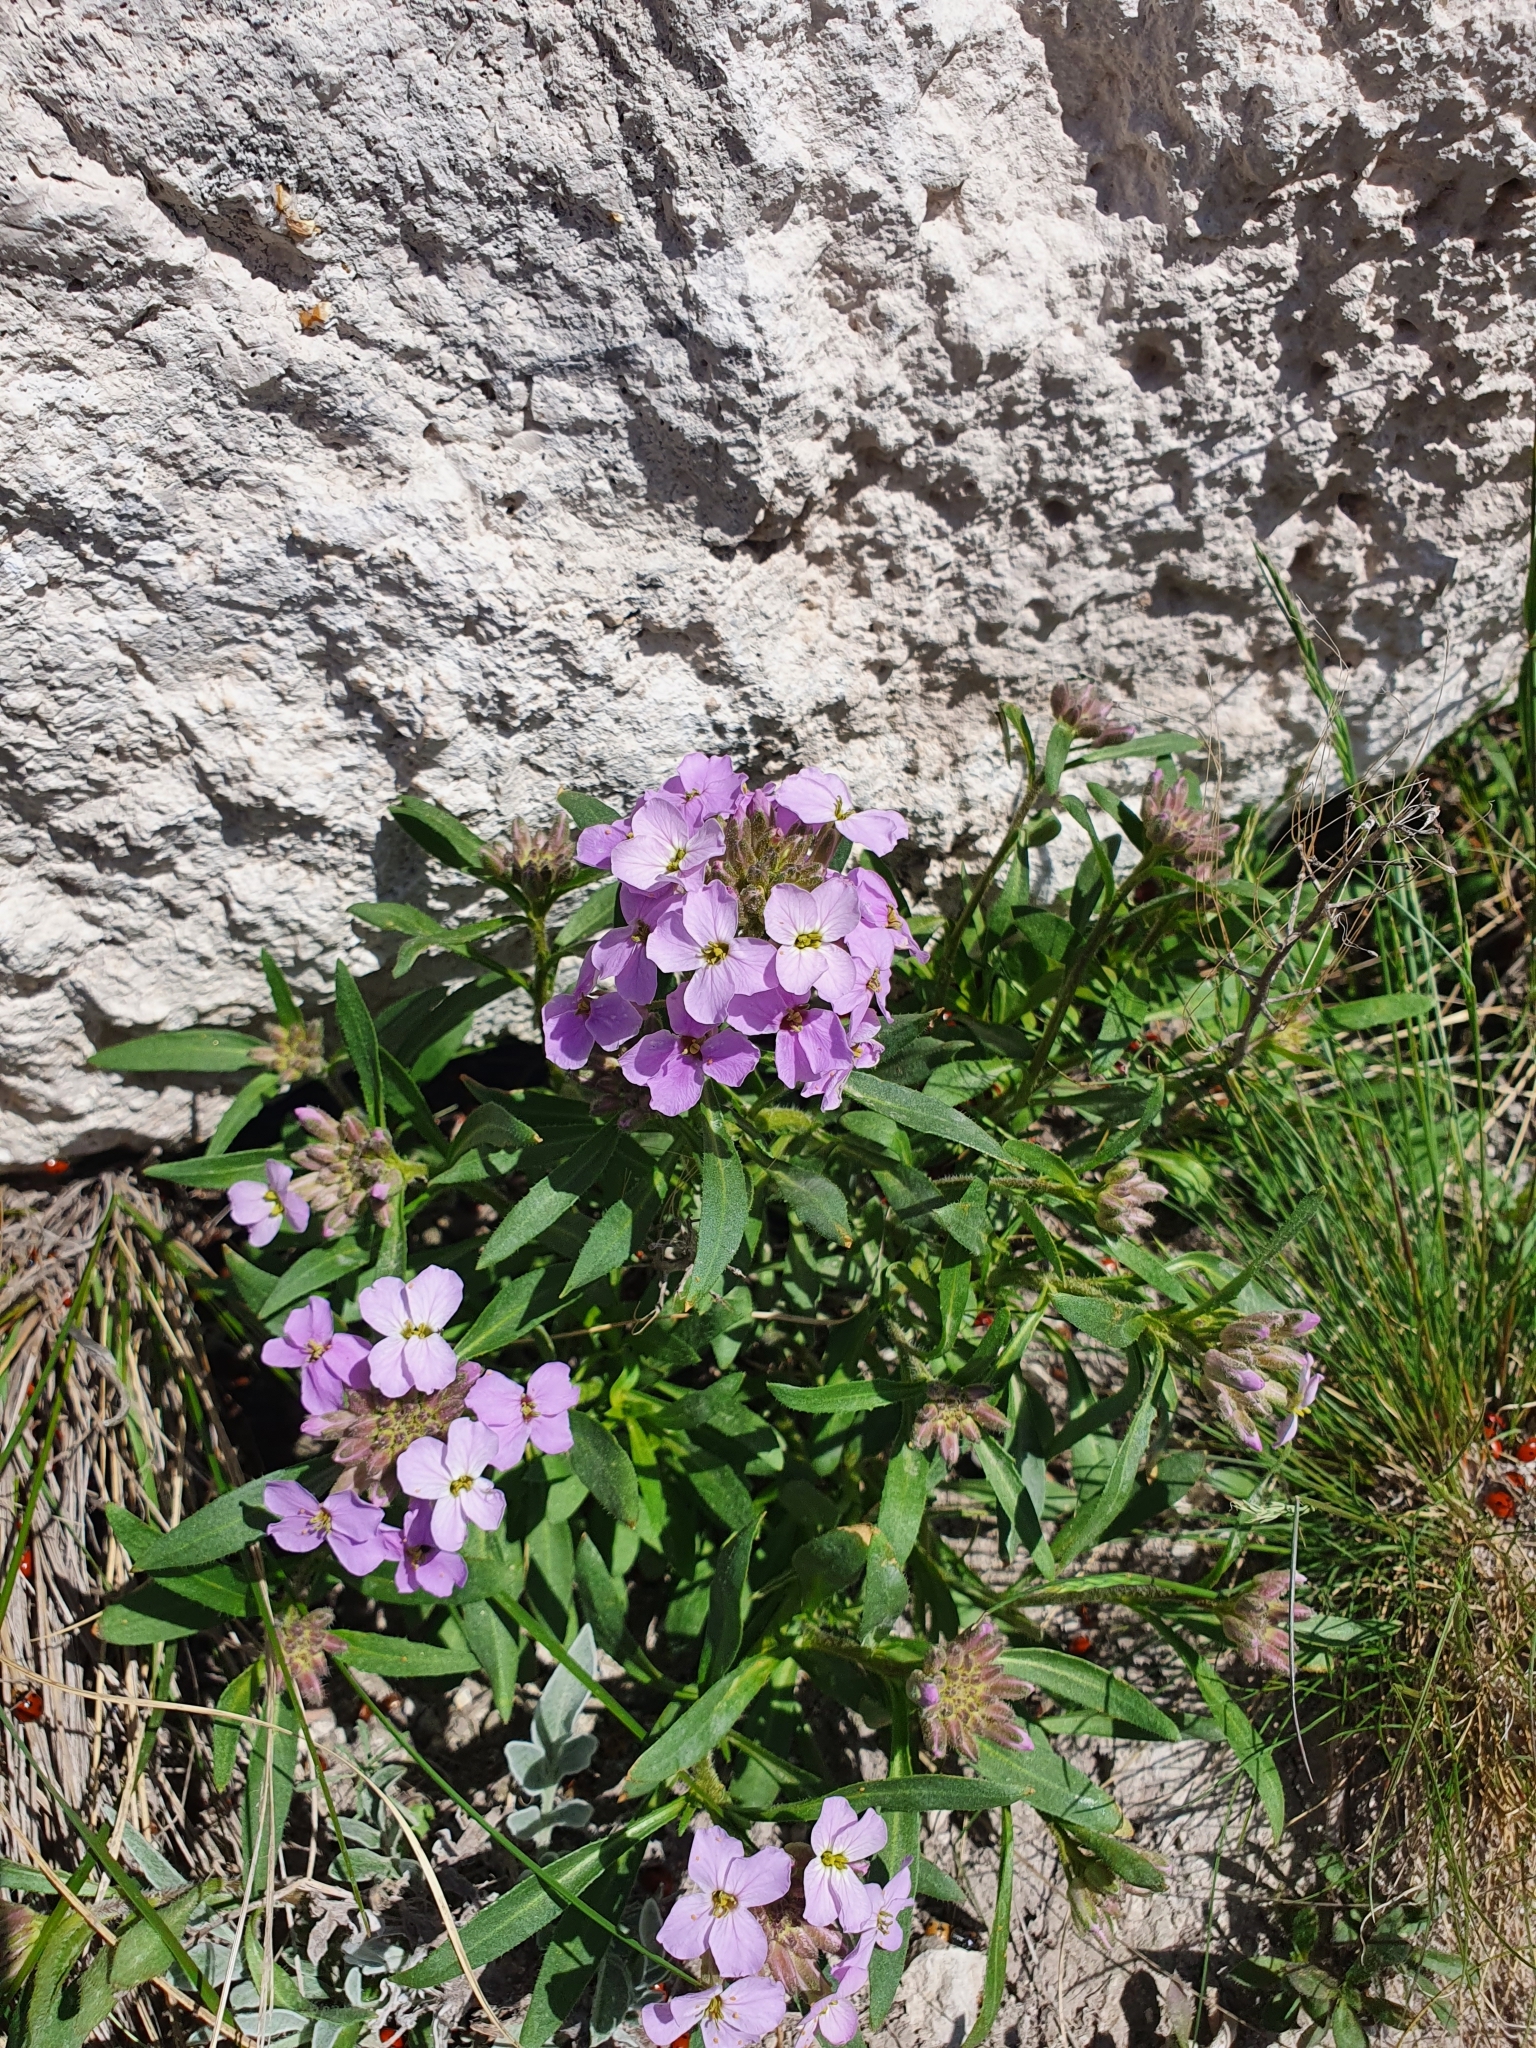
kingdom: Plantae
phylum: Tracheophyta
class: Magnoliopsida
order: Brassicales
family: Brassicaceae
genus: Clausia
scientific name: Clausia aprica
